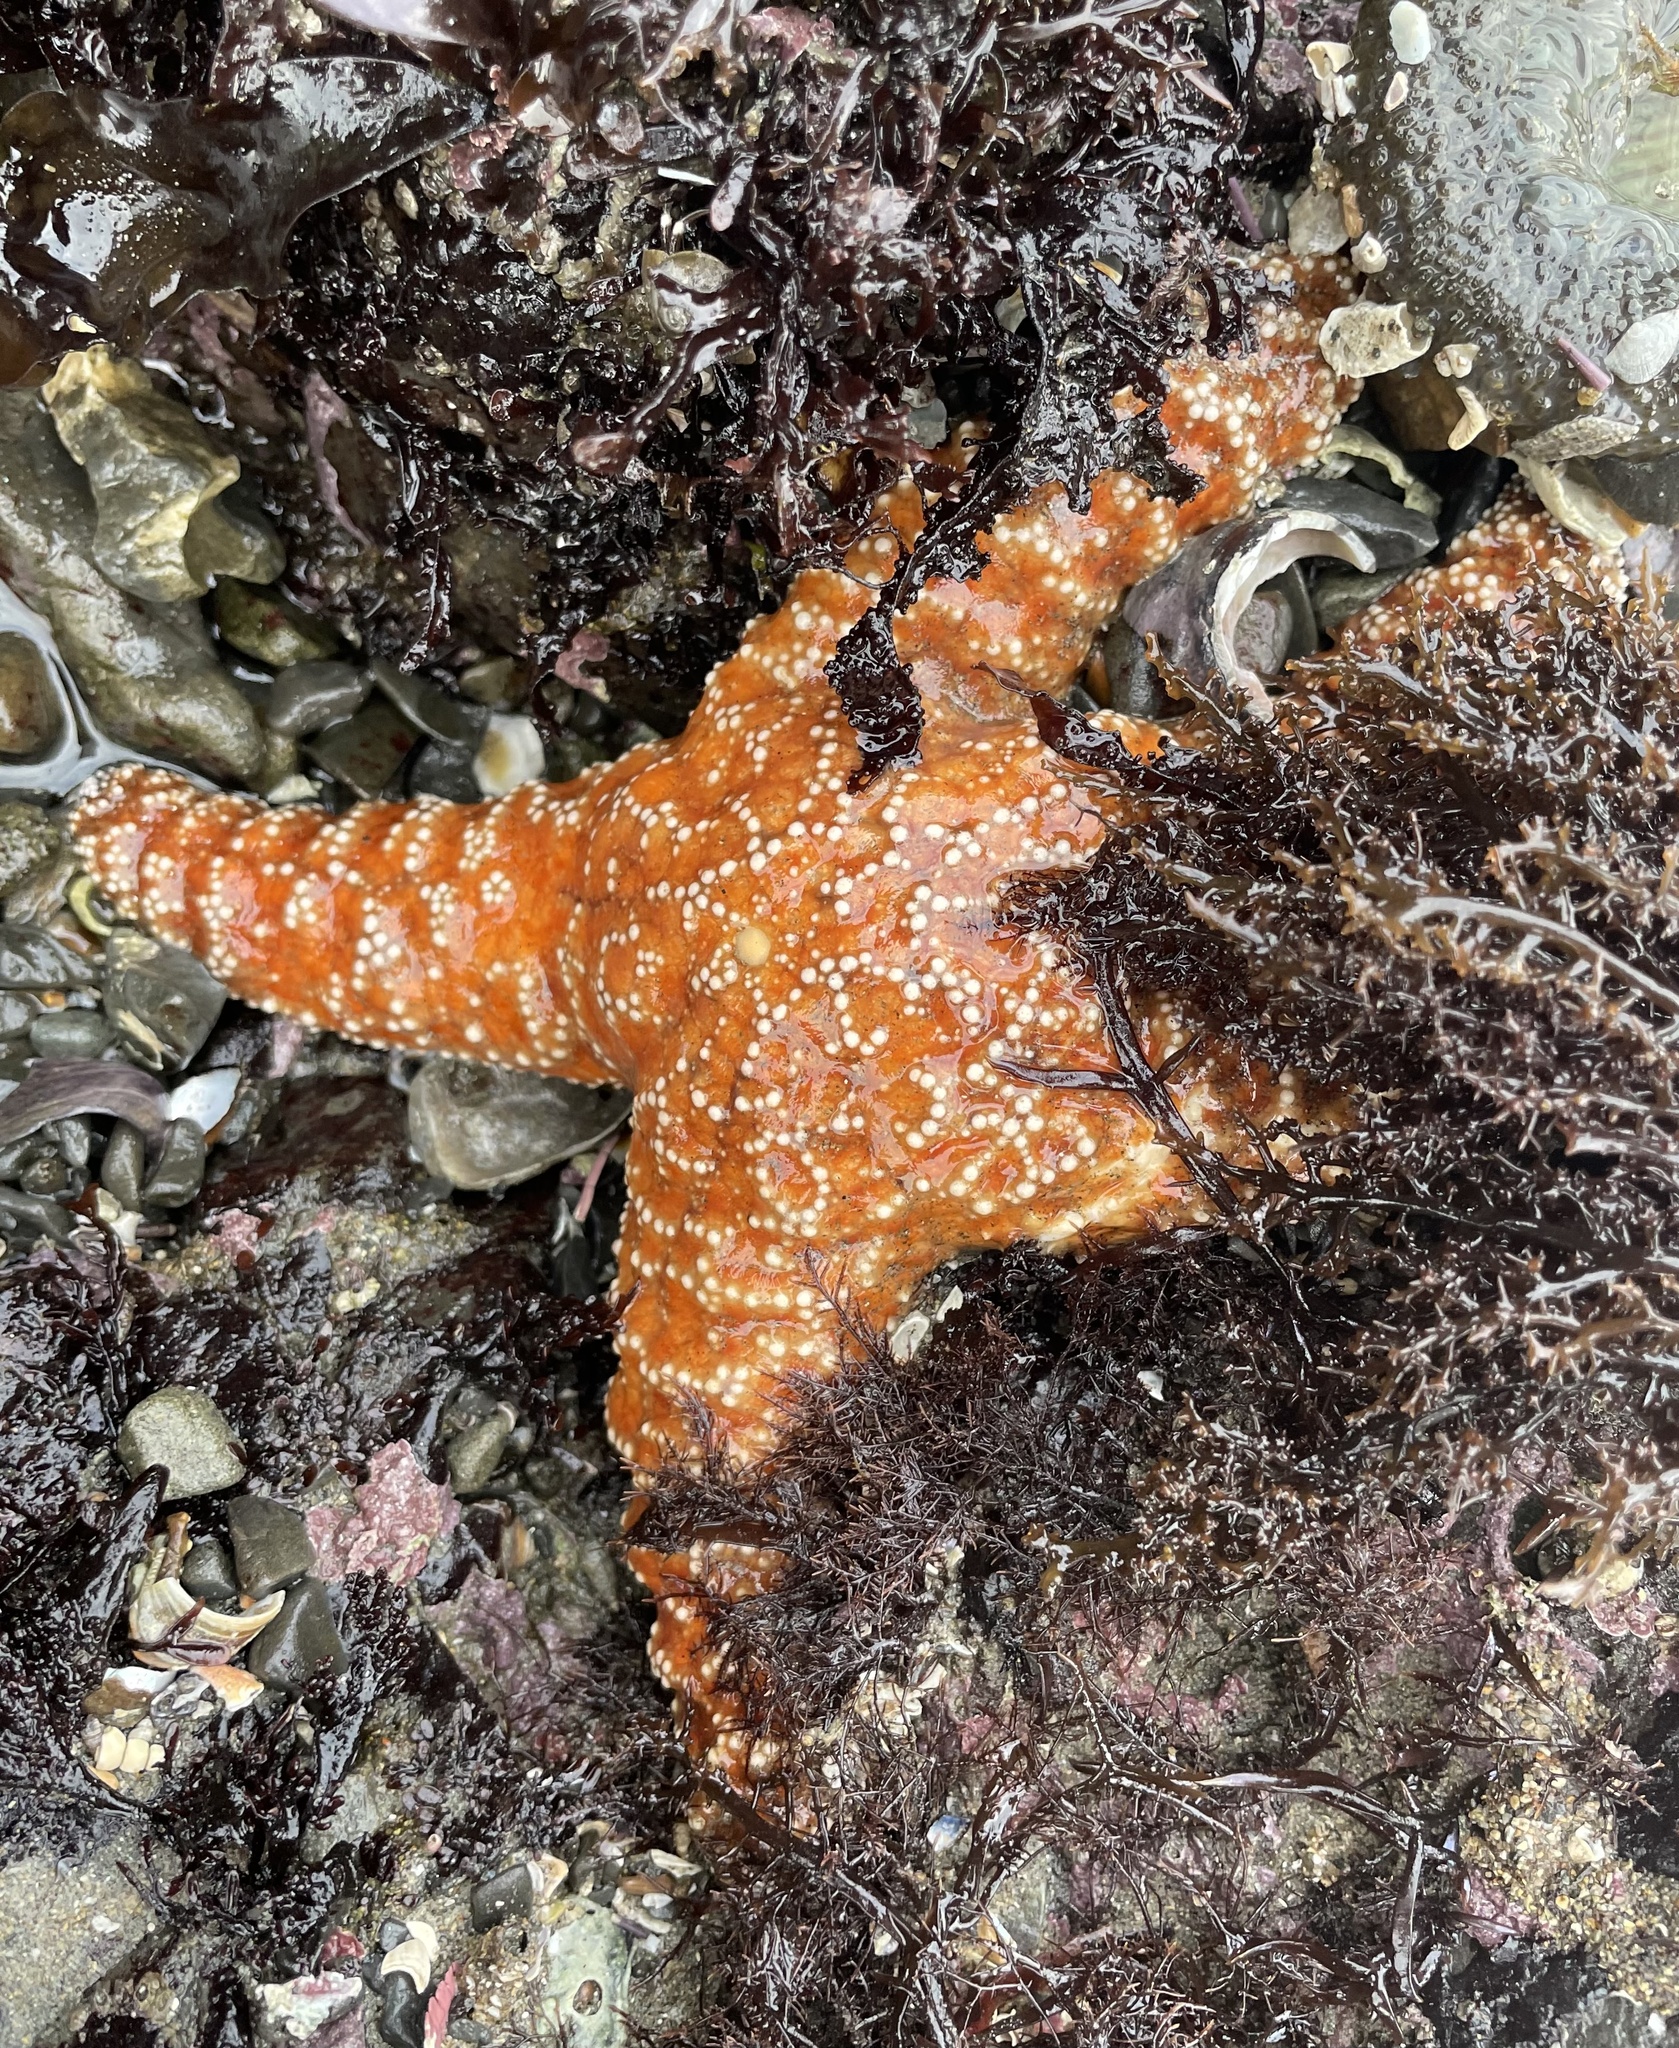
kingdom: Animalia
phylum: Echinodermata
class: Asteroidea
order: Forcipulatida
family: Asteriidae
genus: Pisaster
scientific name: Pisaster ochraceus
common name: Ochre stars
